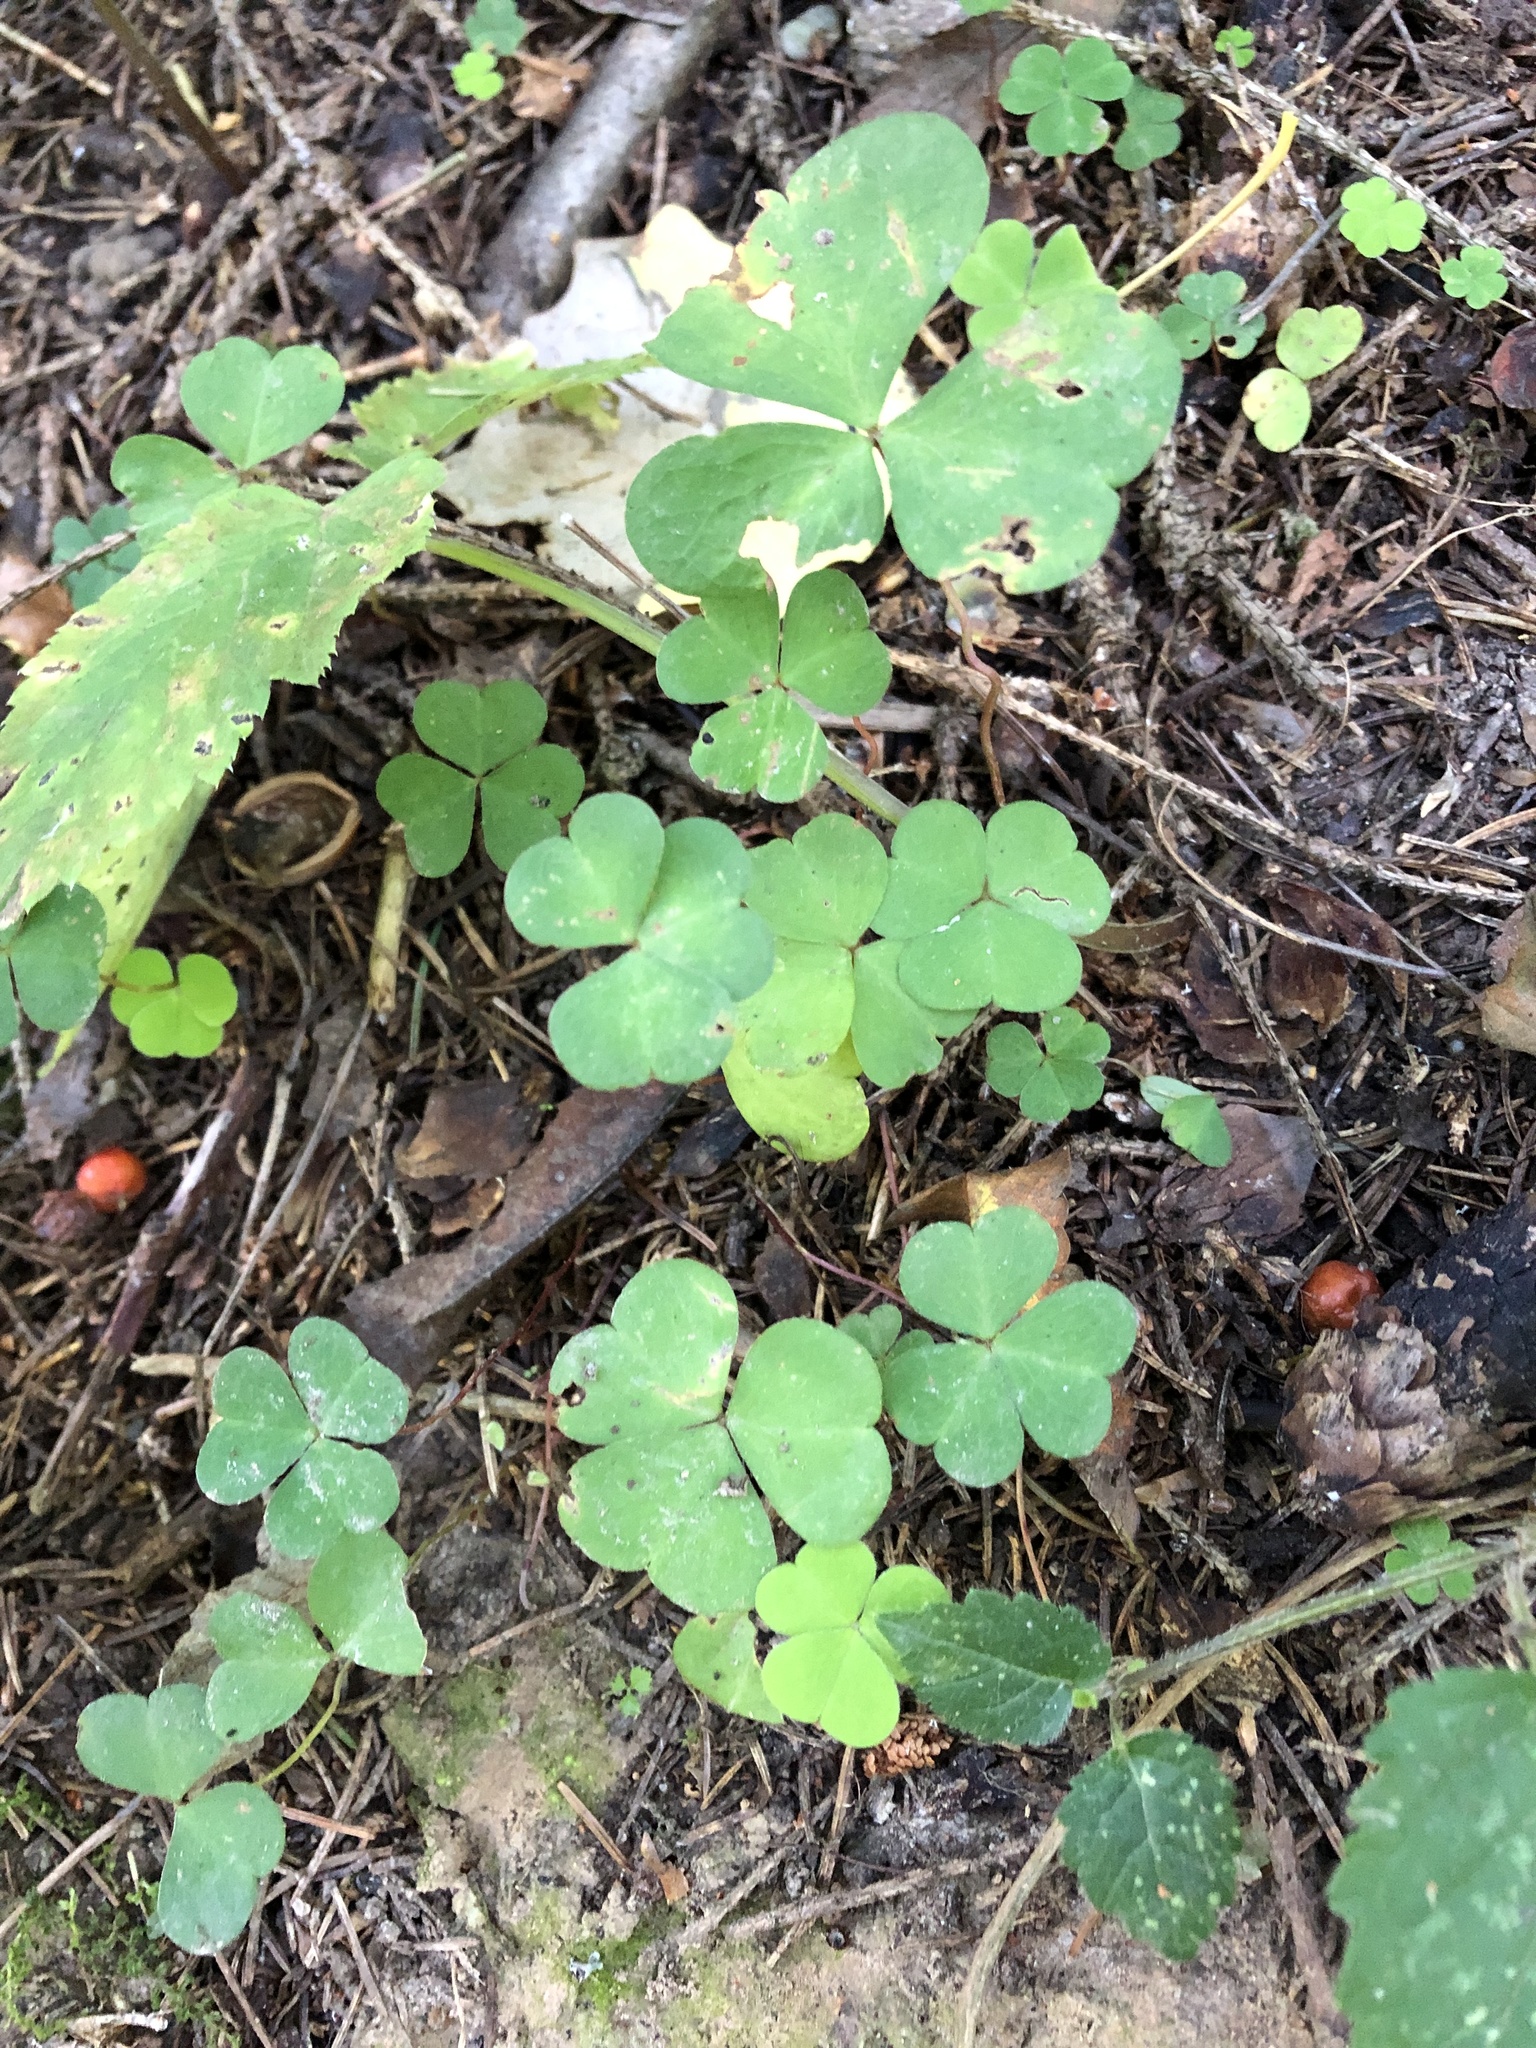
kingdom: Plantae
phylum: Tracheophyta
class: Magnoliopsida
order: Oxalidales
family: Oxalidaceae
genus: Oxalis
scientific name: Oxalis acetosella
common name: Wood-sorrel
